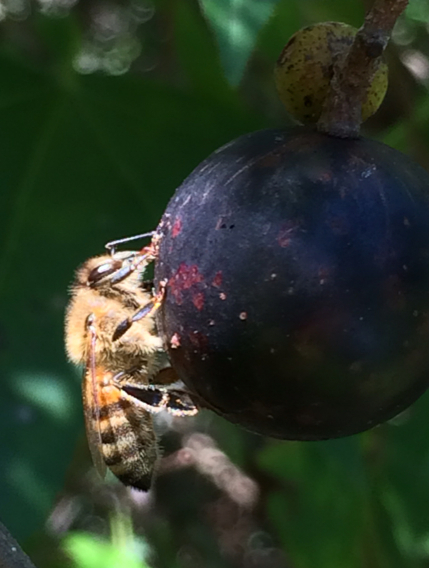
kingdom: Animalia
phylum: Arthropoda
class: Insecta
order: Hymenoptera
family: Apidae
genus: Apis
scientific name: Apis mellifera
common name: Honey bee
